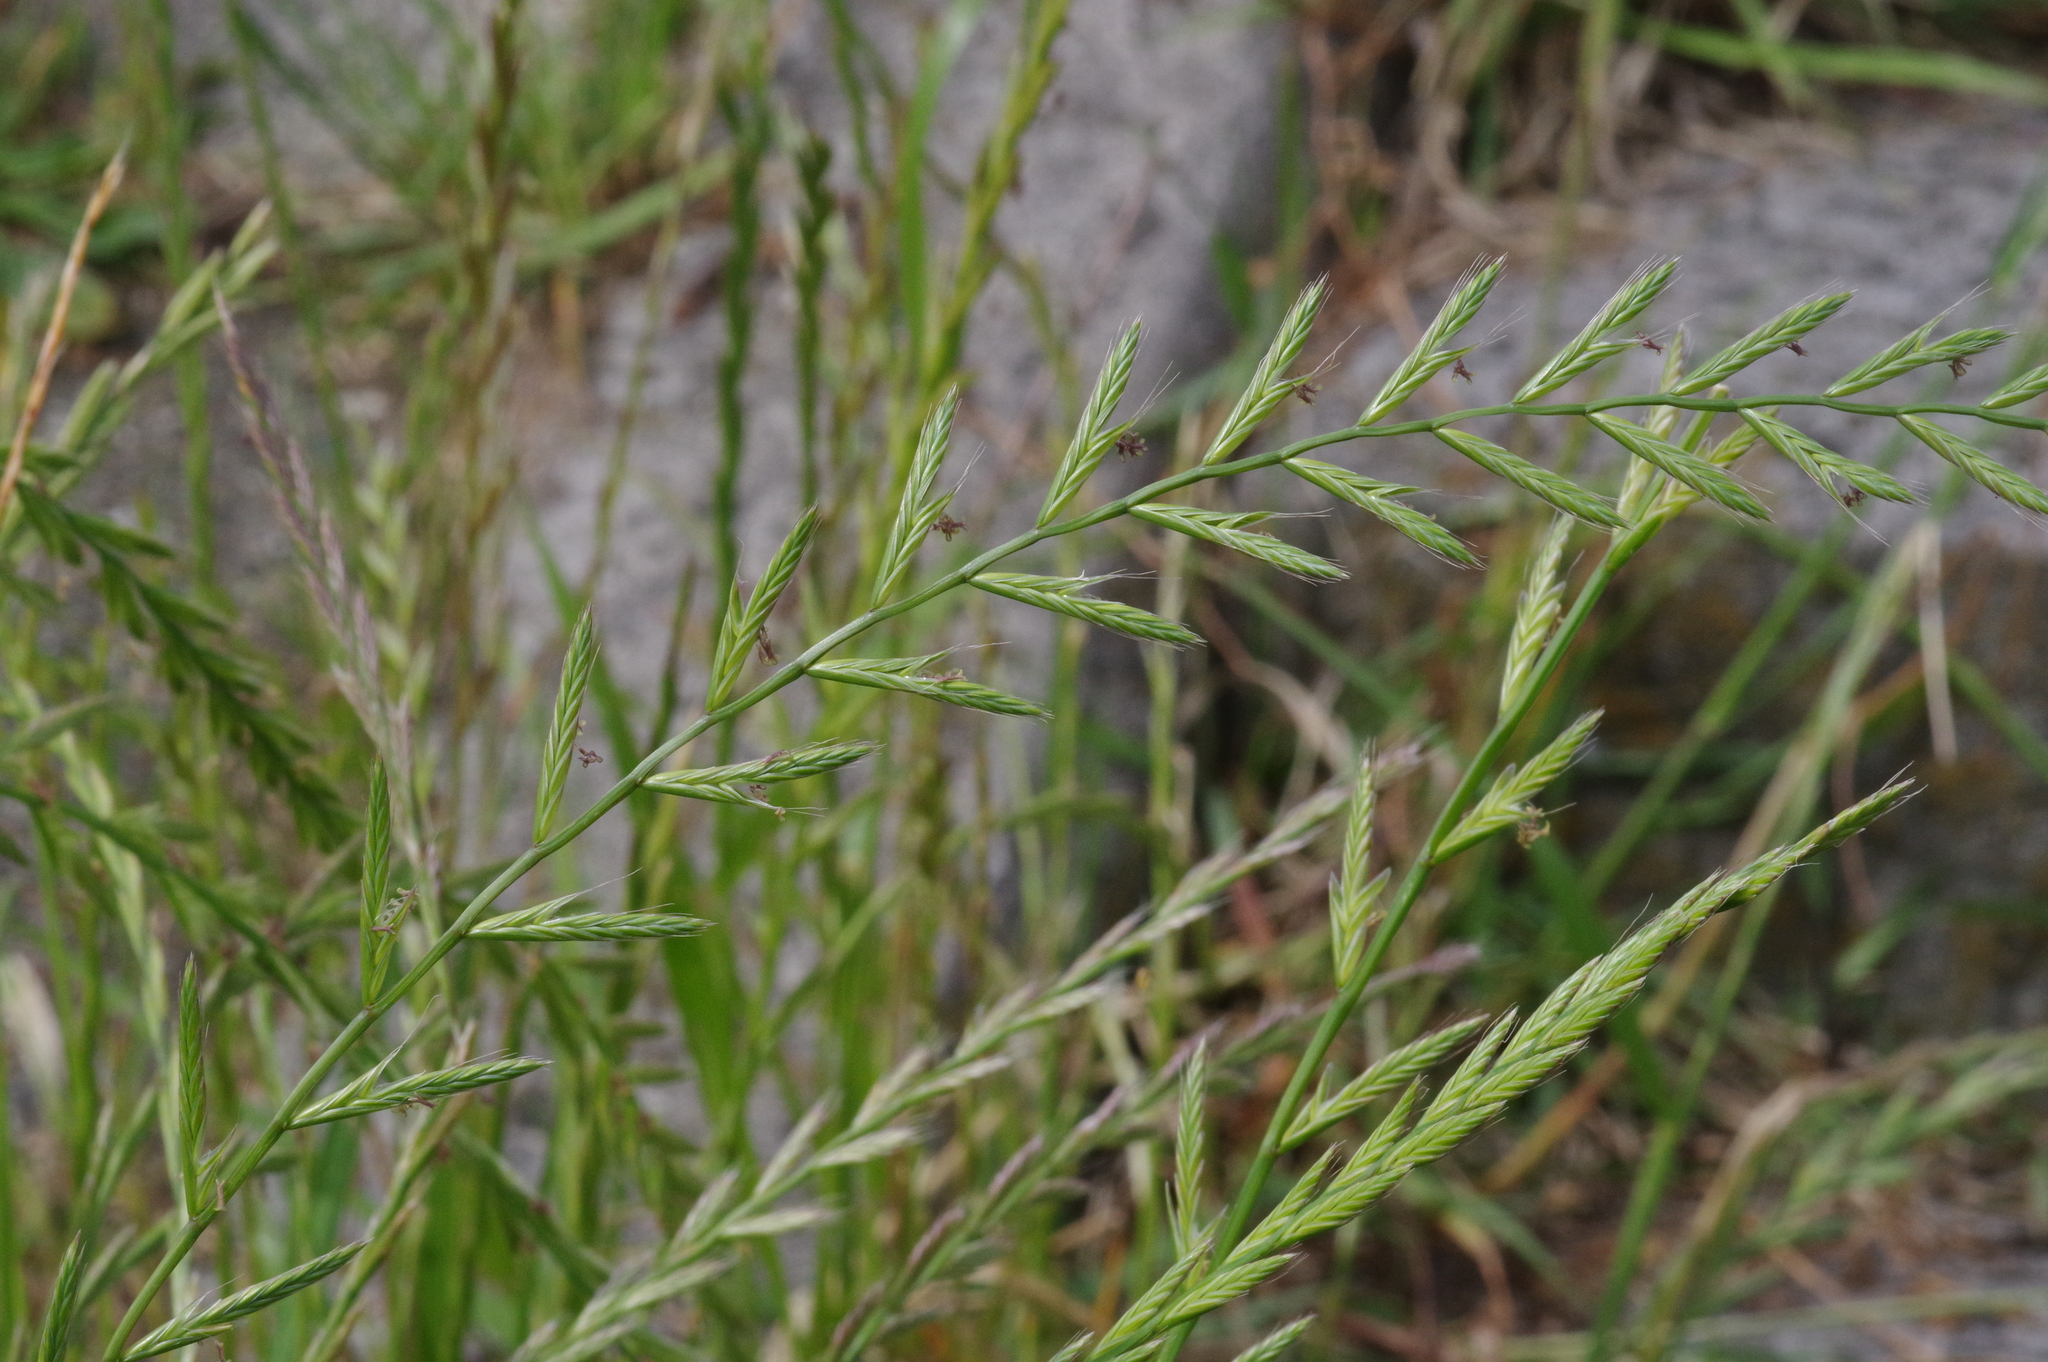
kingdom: Plantae
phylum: Tracheophyta
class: Liliopsida
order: Poales
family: Poaceae
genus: Lolium
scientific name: Lolium multiflorum
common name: Annual ryegrass
